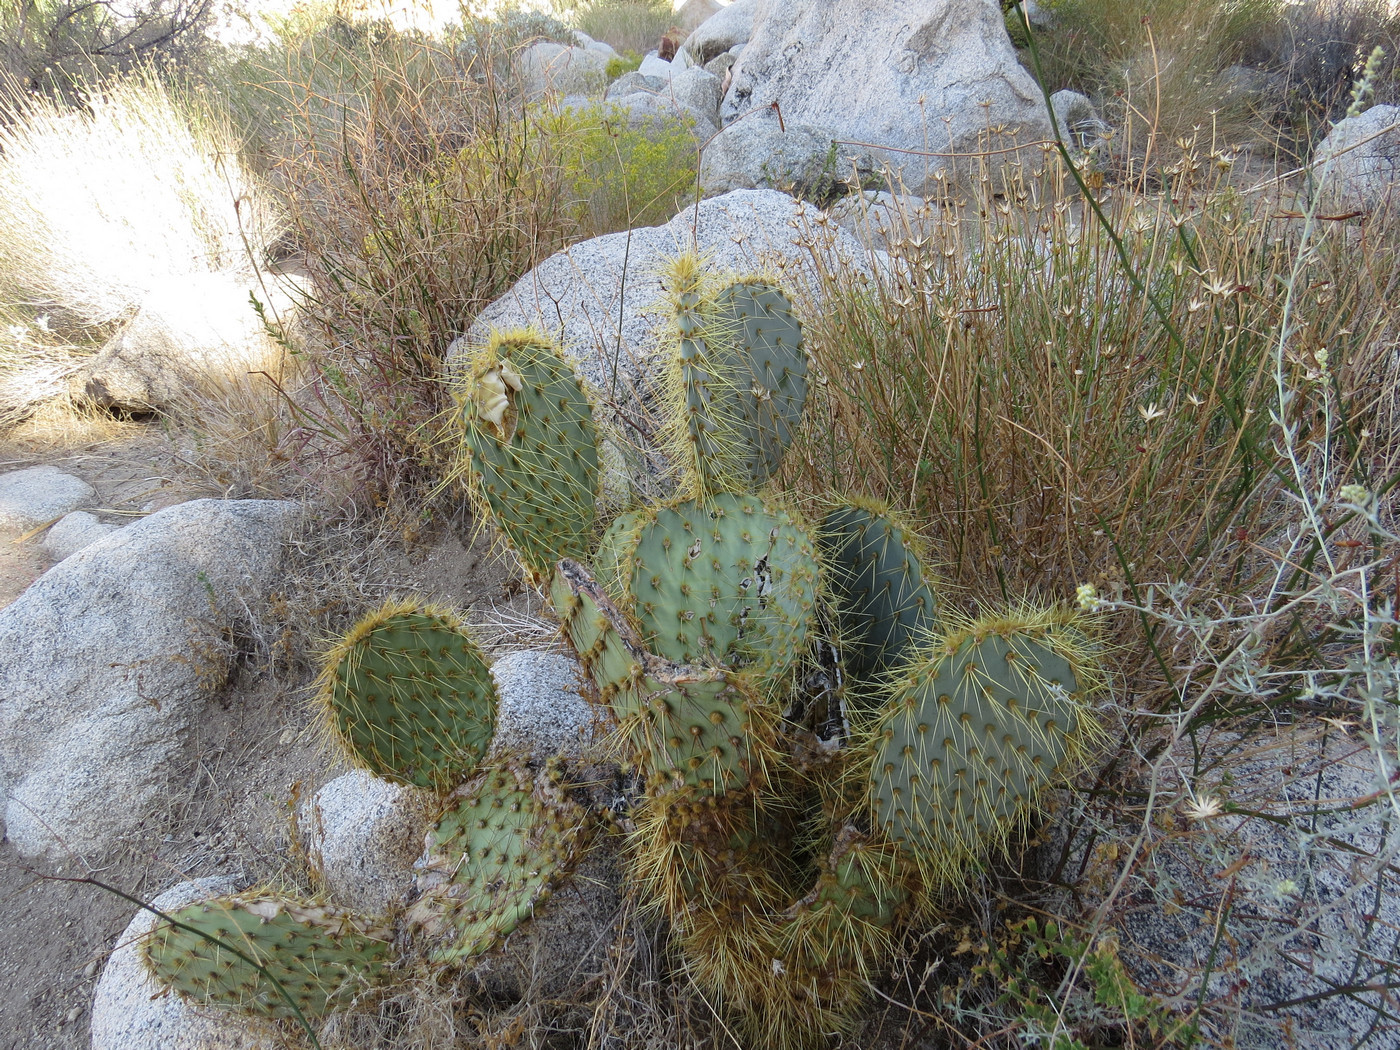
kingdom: Plantae
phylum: Tracheophyta
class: Magnoliopsida
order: Caryophyllales
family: Cactaceae
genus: Opuntia
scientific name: Opuntia chlorotica
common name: Dollar-joint prickly-pear
